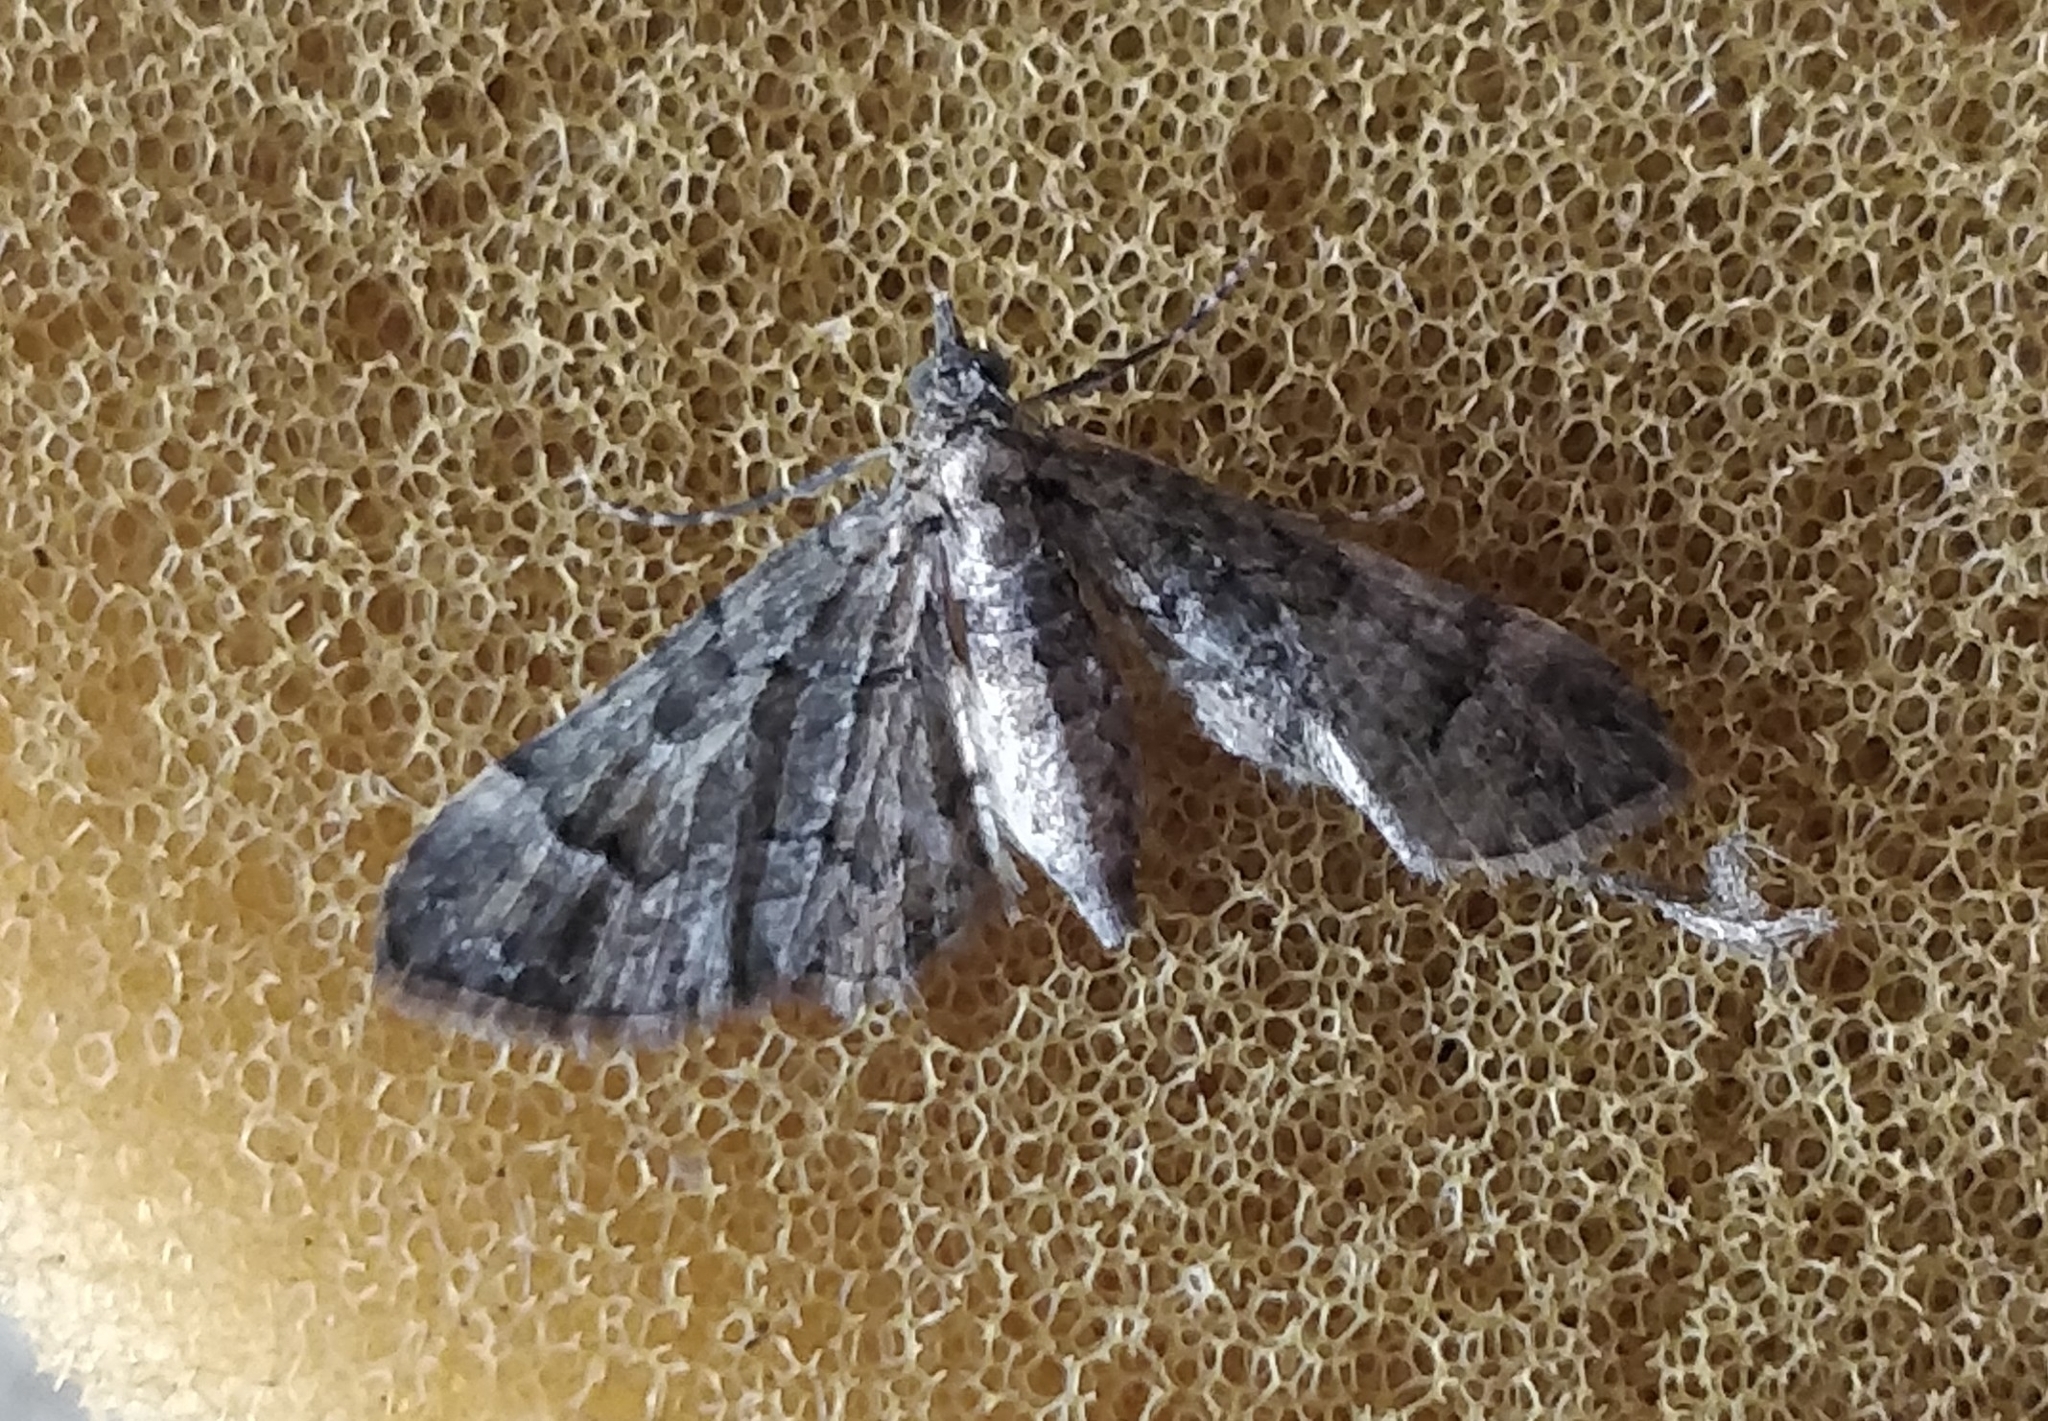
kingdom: Animalia
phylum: Arthropoda
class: Insecta
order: Lepidoptera
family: Geometridae
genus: Gymnoscelis
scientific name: Gymnoscelis insulariata
